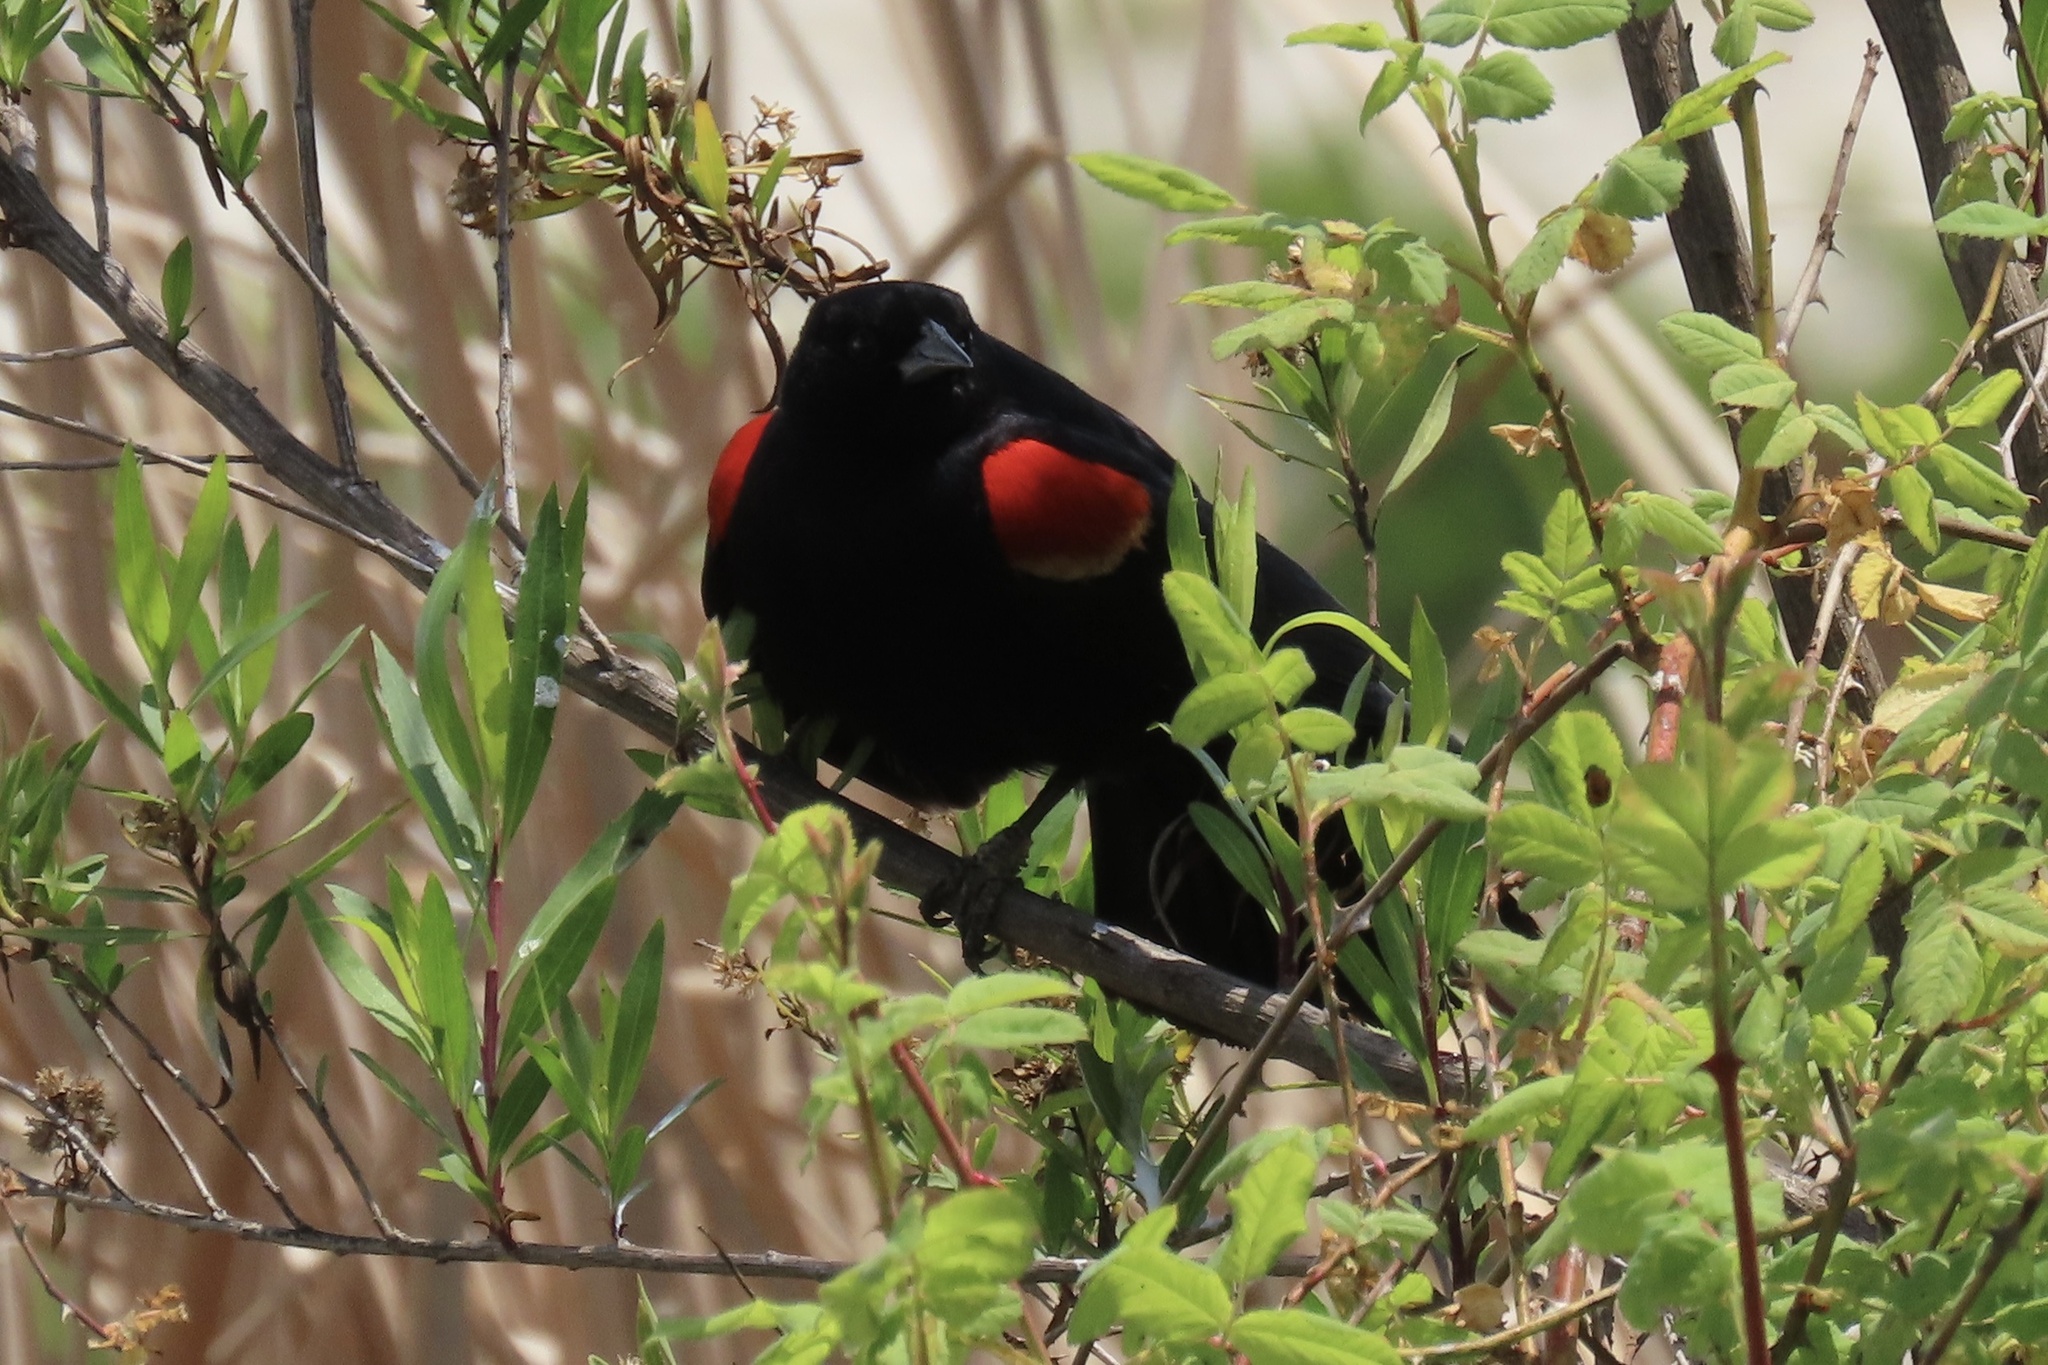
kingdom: Animalia
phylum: Chordata
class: Aves
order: Passeriformes
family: Icteridae
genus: Agelaius
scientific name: Agelaius phoeniceus
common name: Red-winged blackbird
